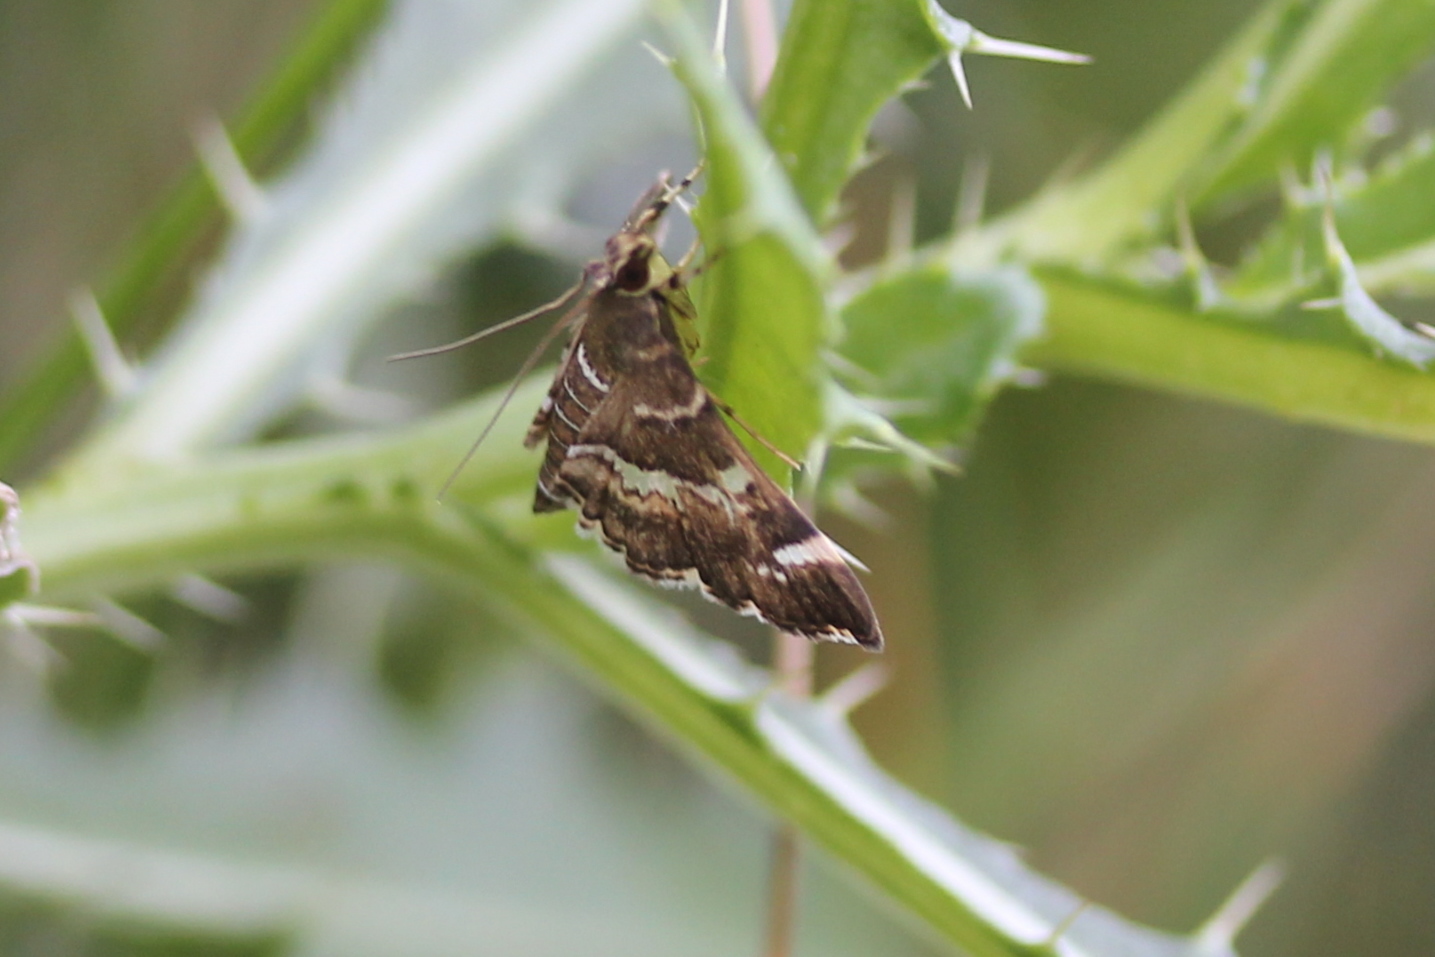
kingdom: Animalia
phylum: Arthropoda
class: Insecta
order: Lepidoptera
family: Crambidae
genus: Hymenia
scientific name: Hymenia perspectalis
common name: Spotted beet webworm
